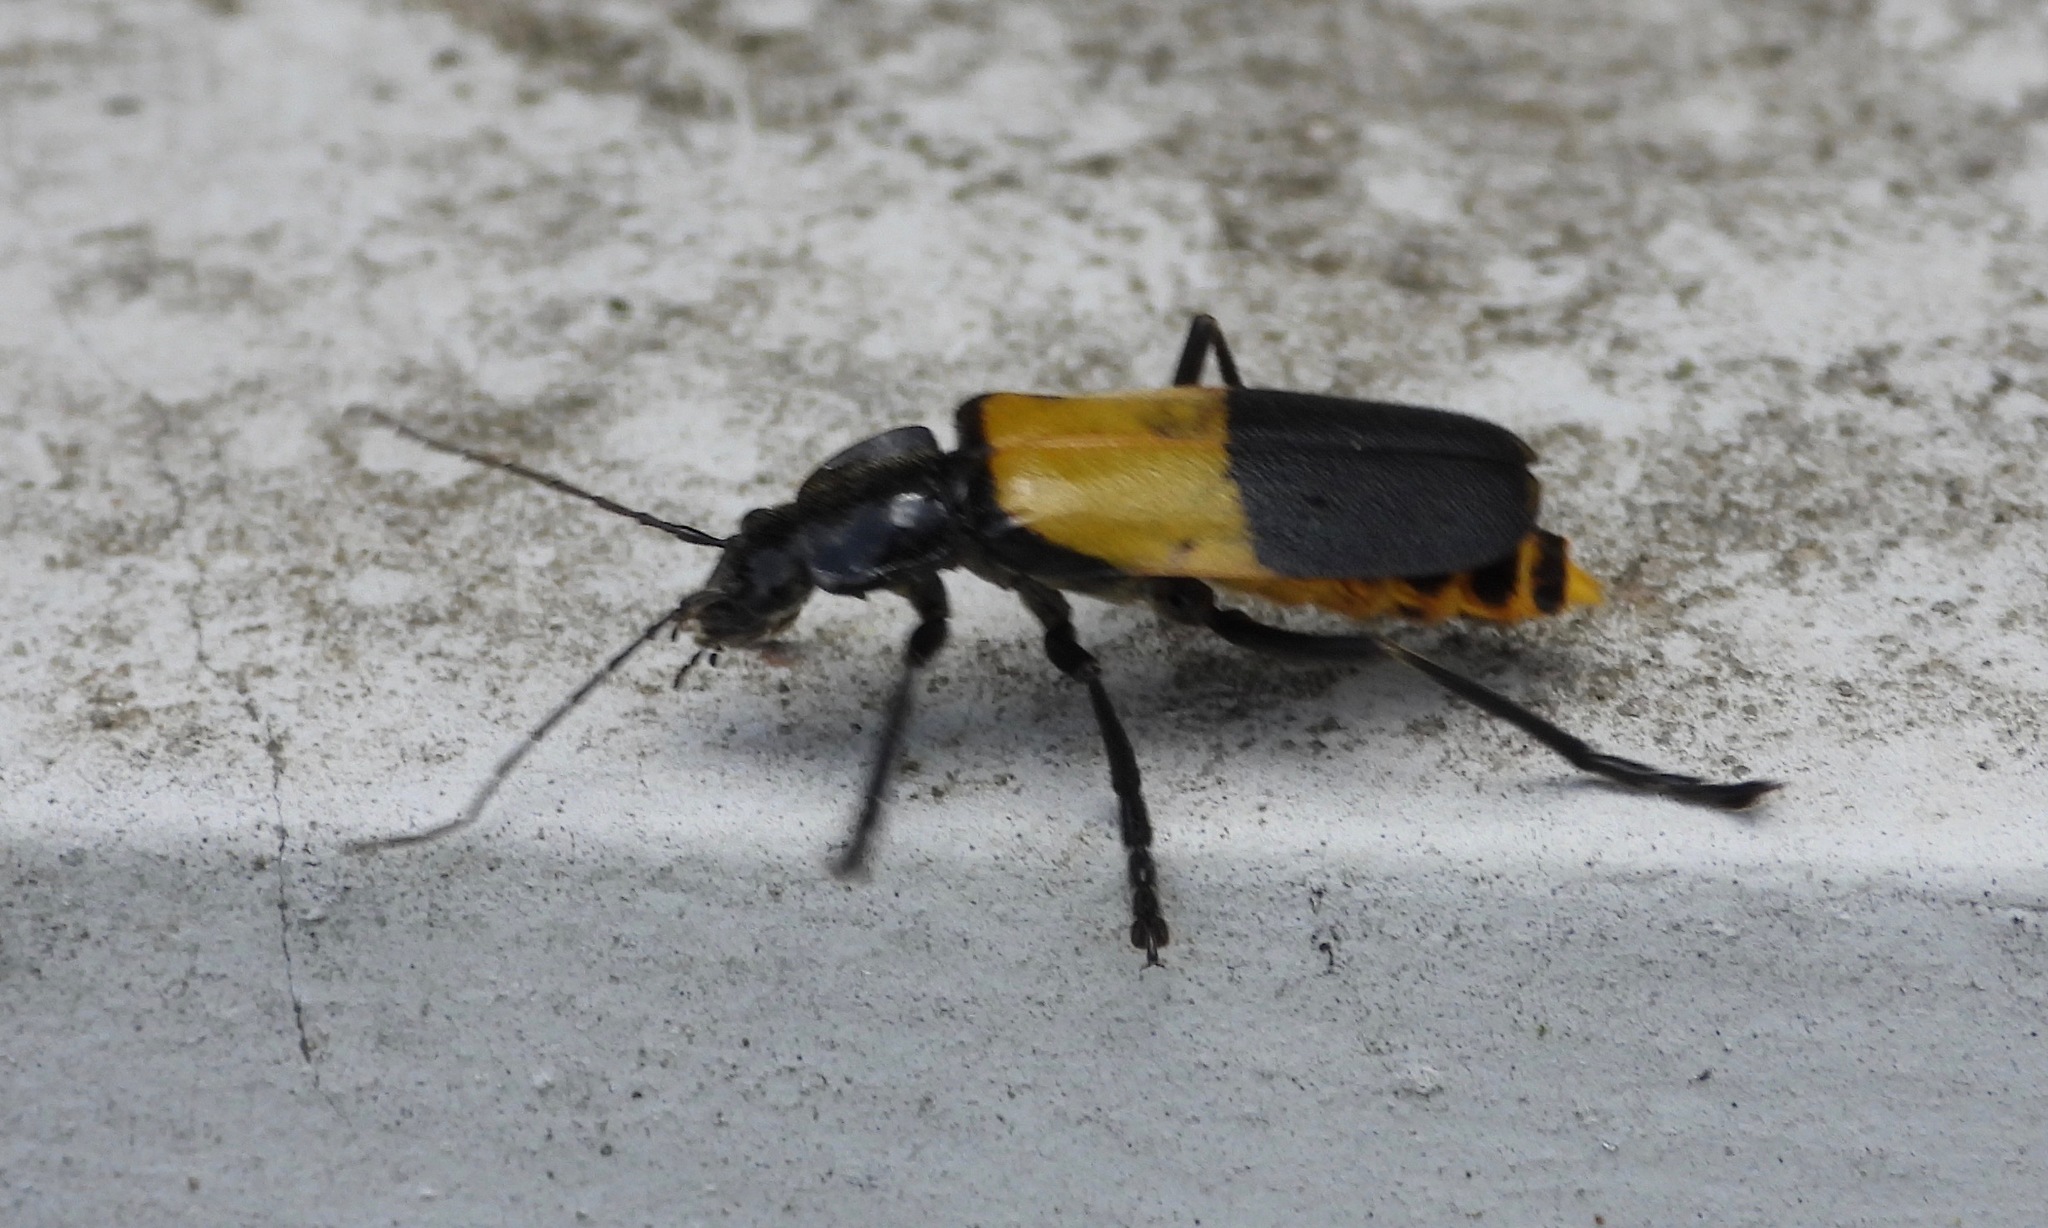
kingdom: Animalia
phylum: Arthropoda
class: Insecta
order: Coleoptera
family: Cantharidae
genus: Chauliognathus
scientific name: Chauliognathus
